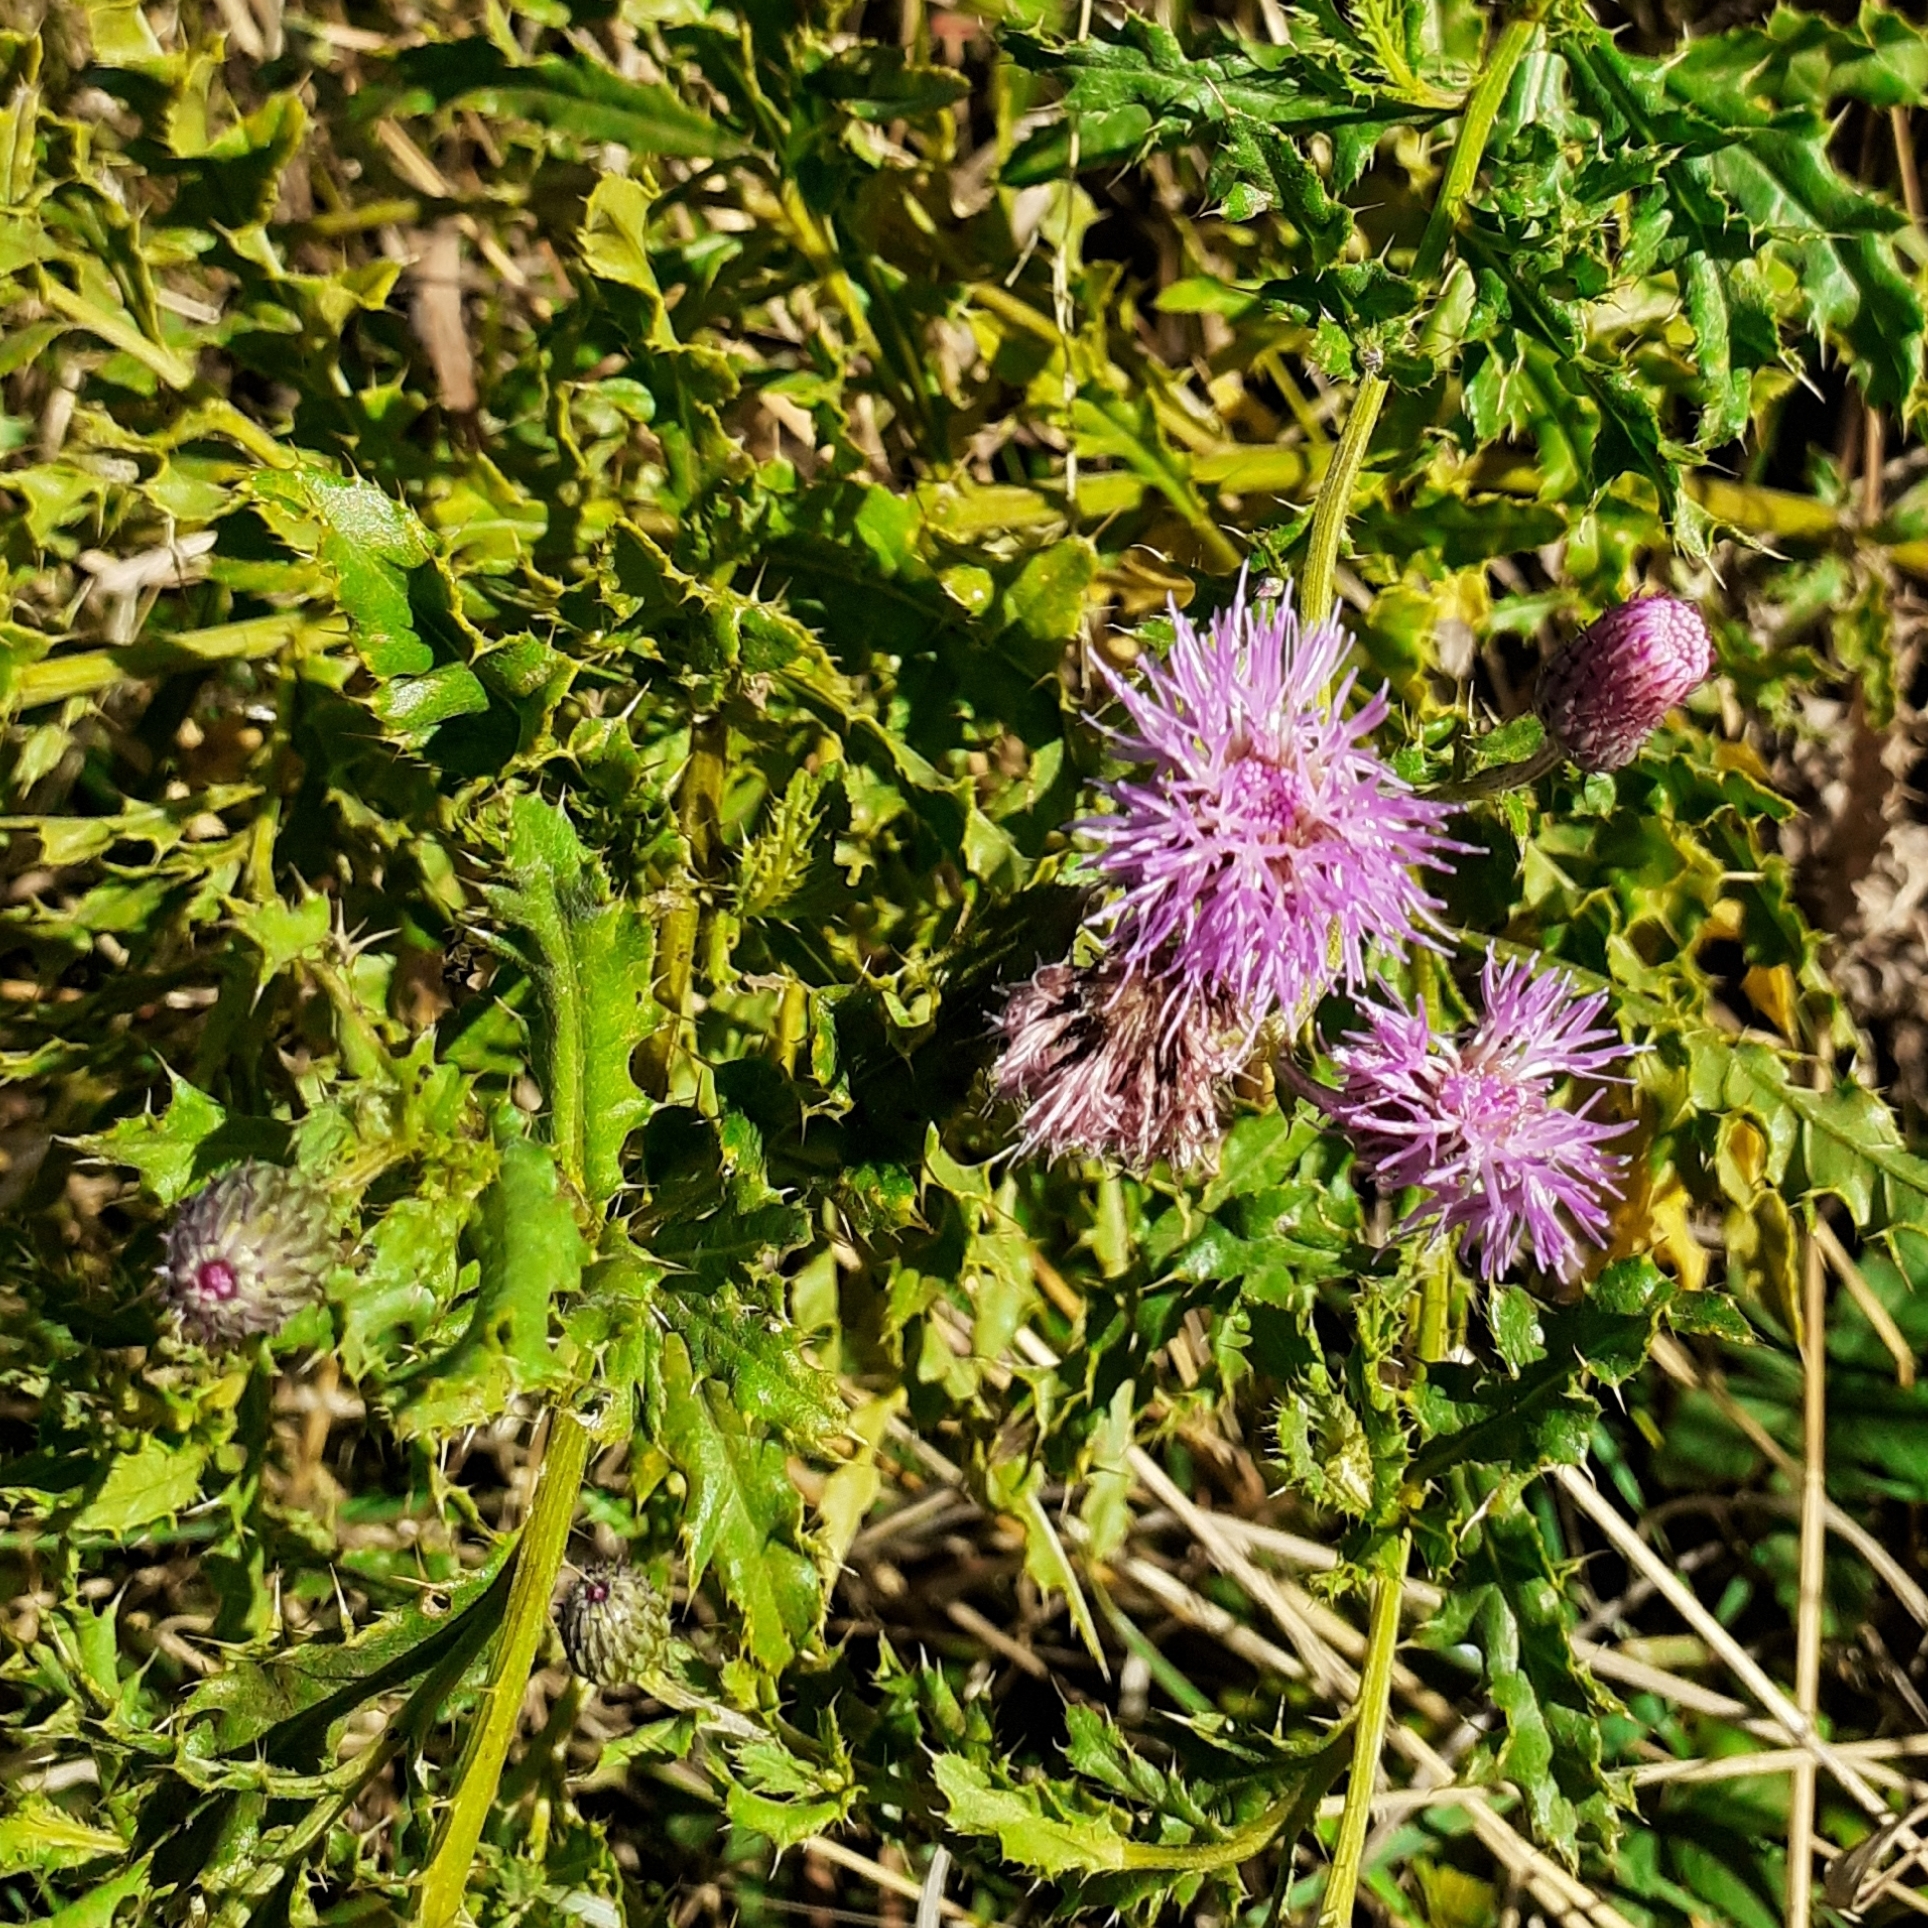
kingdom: Plantae
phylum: Tracheophyta
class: Magnoliopsida
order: Asterales
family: Asteraceae
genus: Cirsium
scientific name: Cirsium arvense
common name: Creeping thistle
